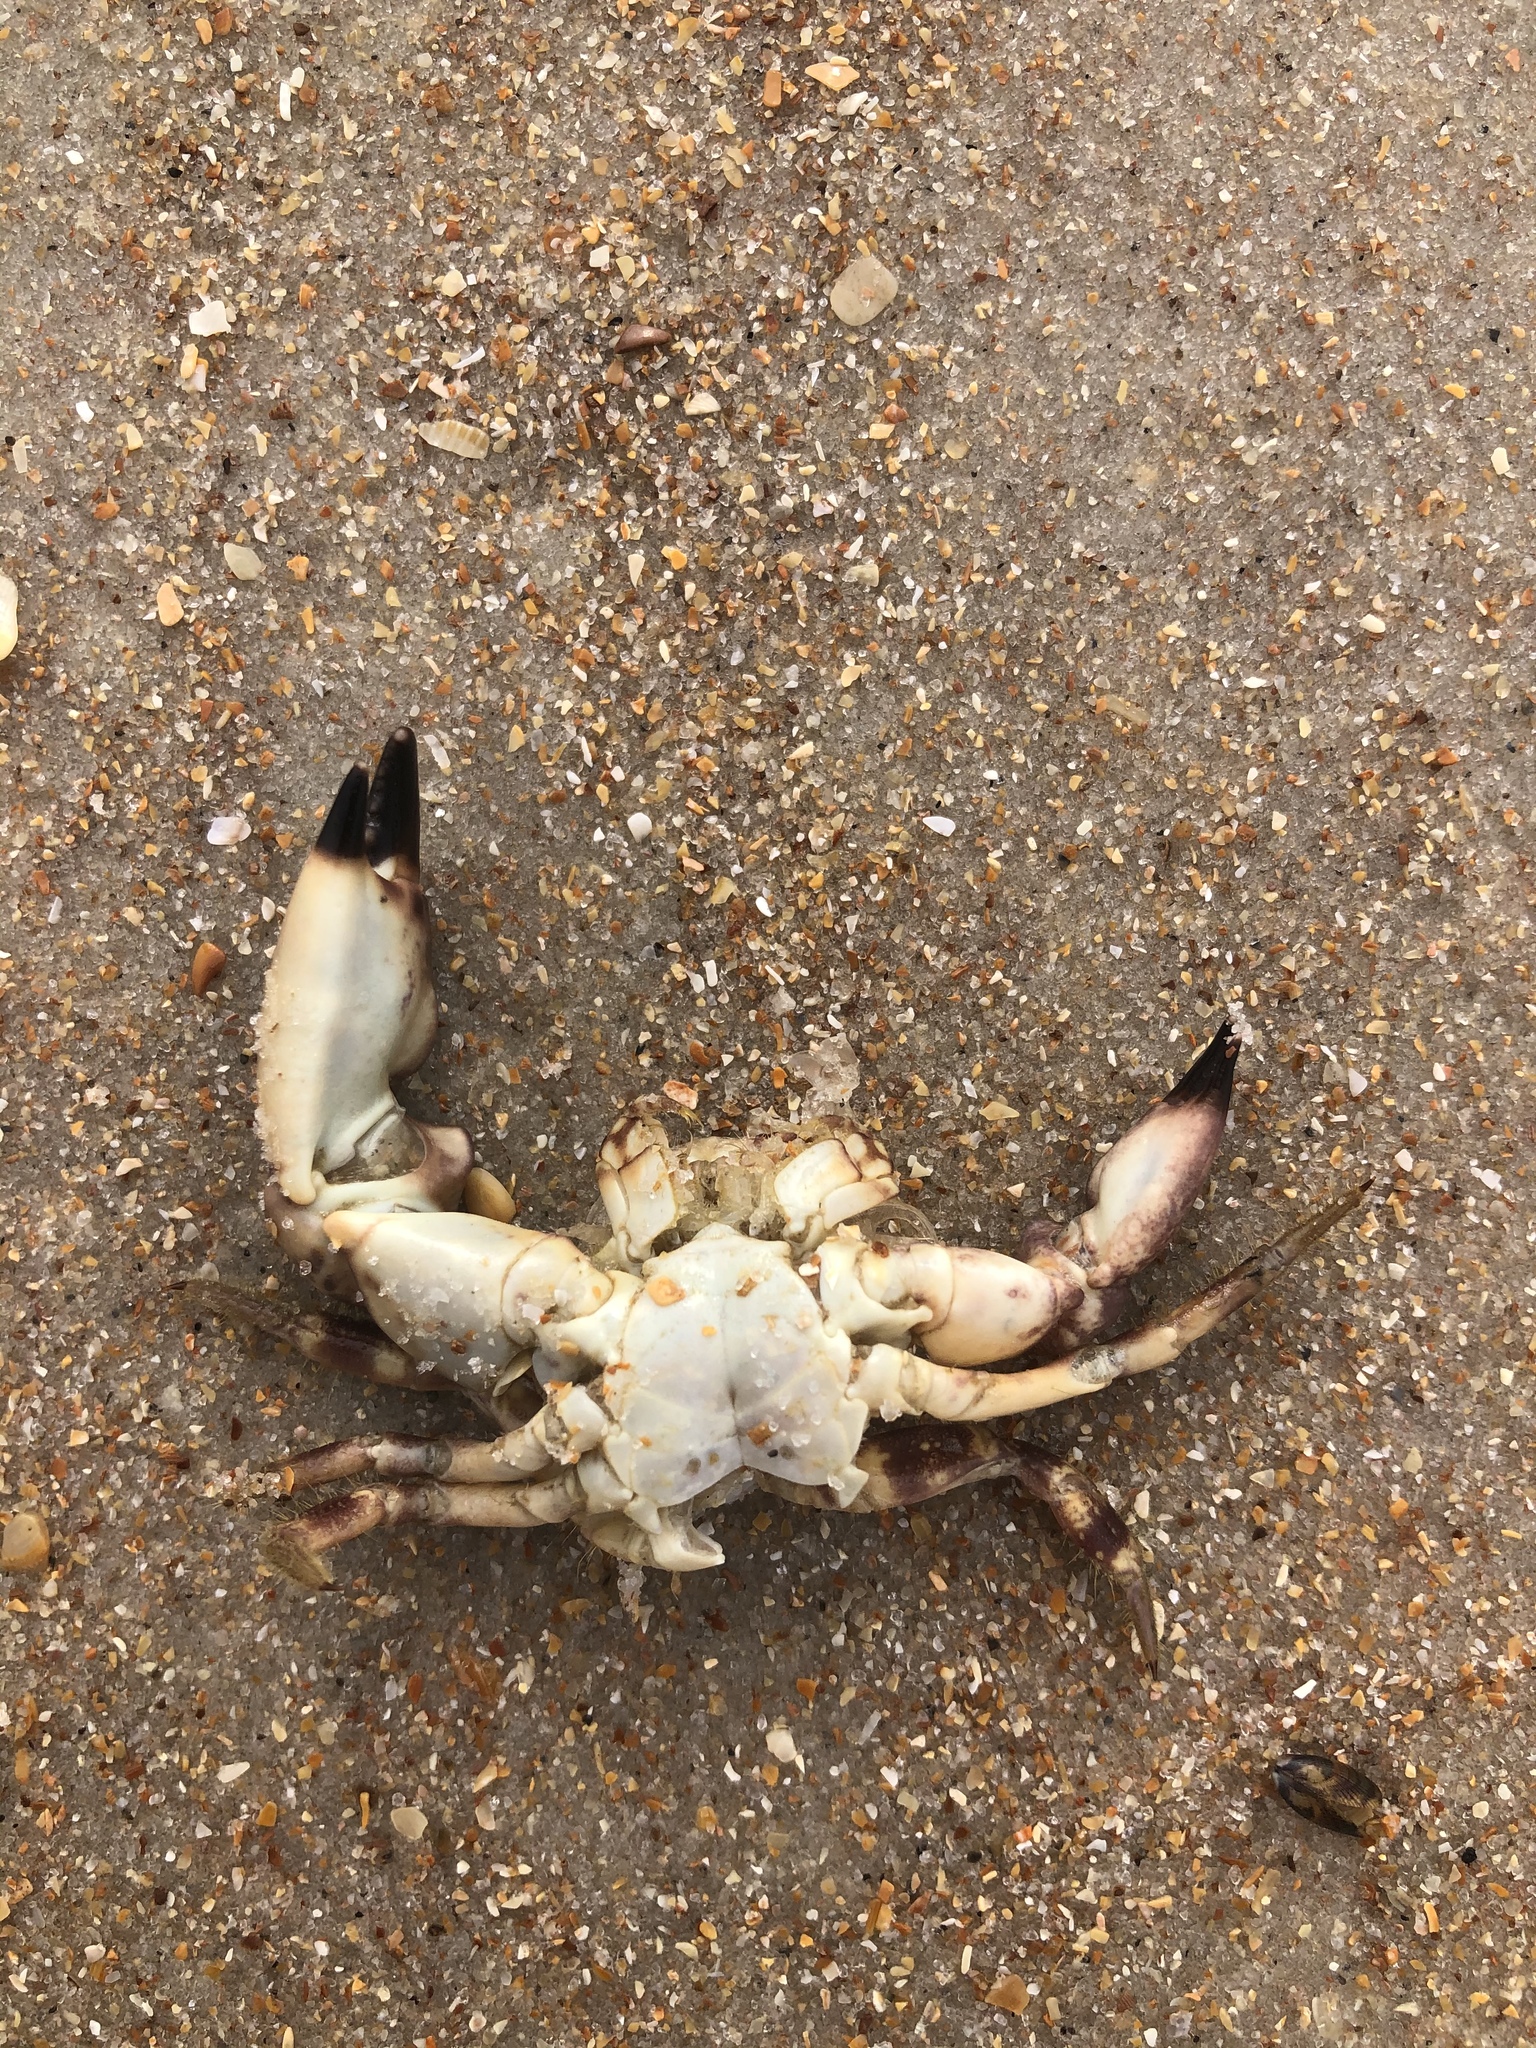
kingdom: Animalia
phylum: Arthropoda
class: Malacostraca
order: Decapoda
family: Menippidae
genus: Menippe
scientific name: Menippe mercenaria
